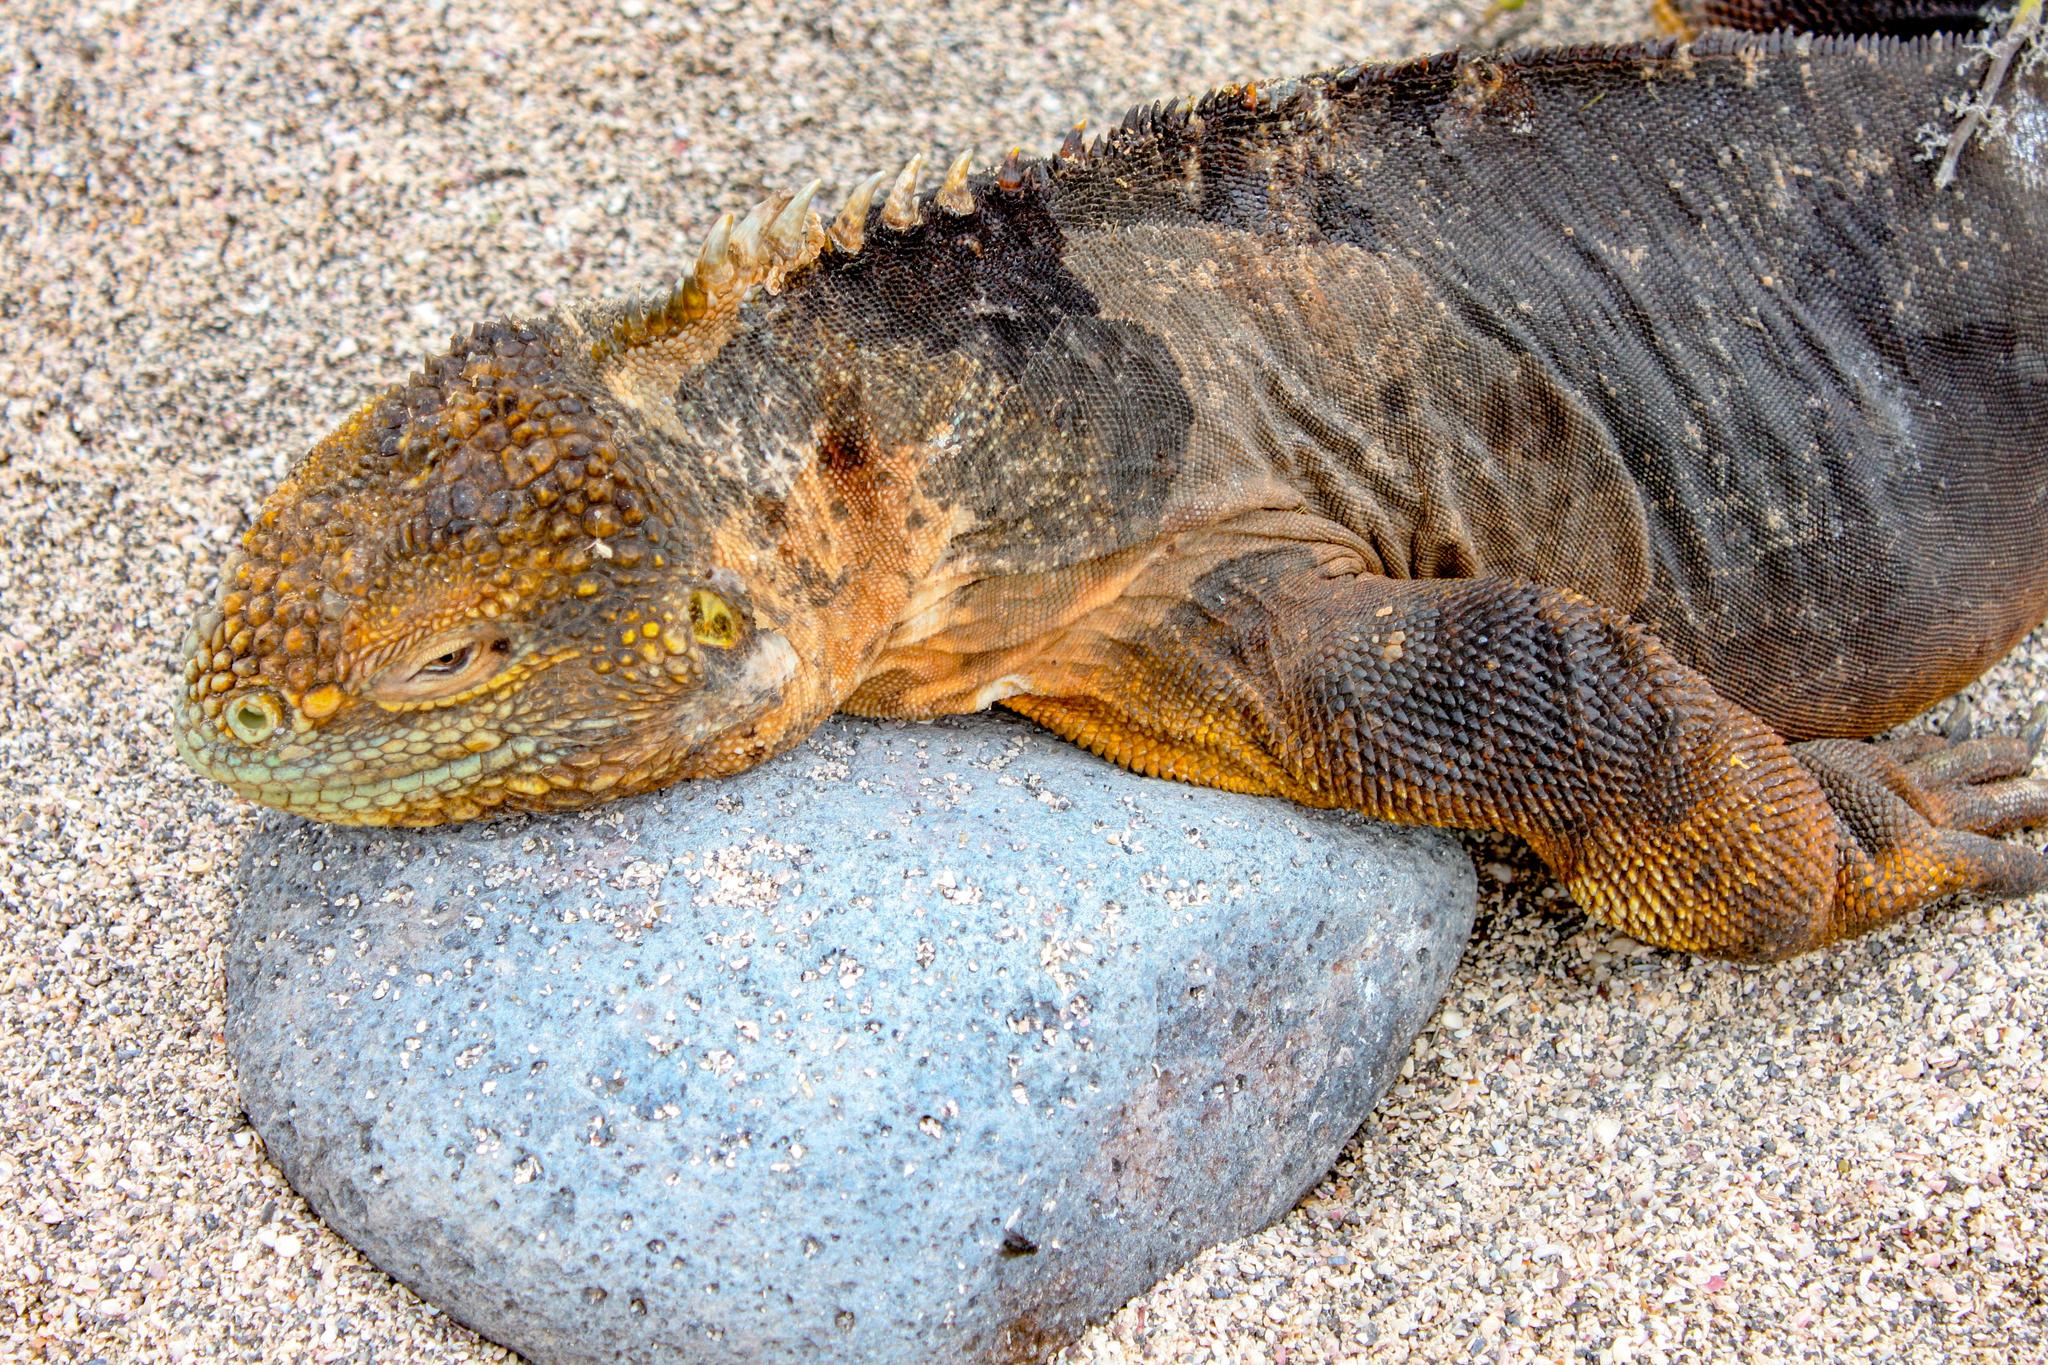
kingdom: Animalia
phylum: Chordata
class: Squamata
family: Iguanidae
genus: Conolophus
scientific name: Conolophus subcristatus
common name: Galapagos land iguana
